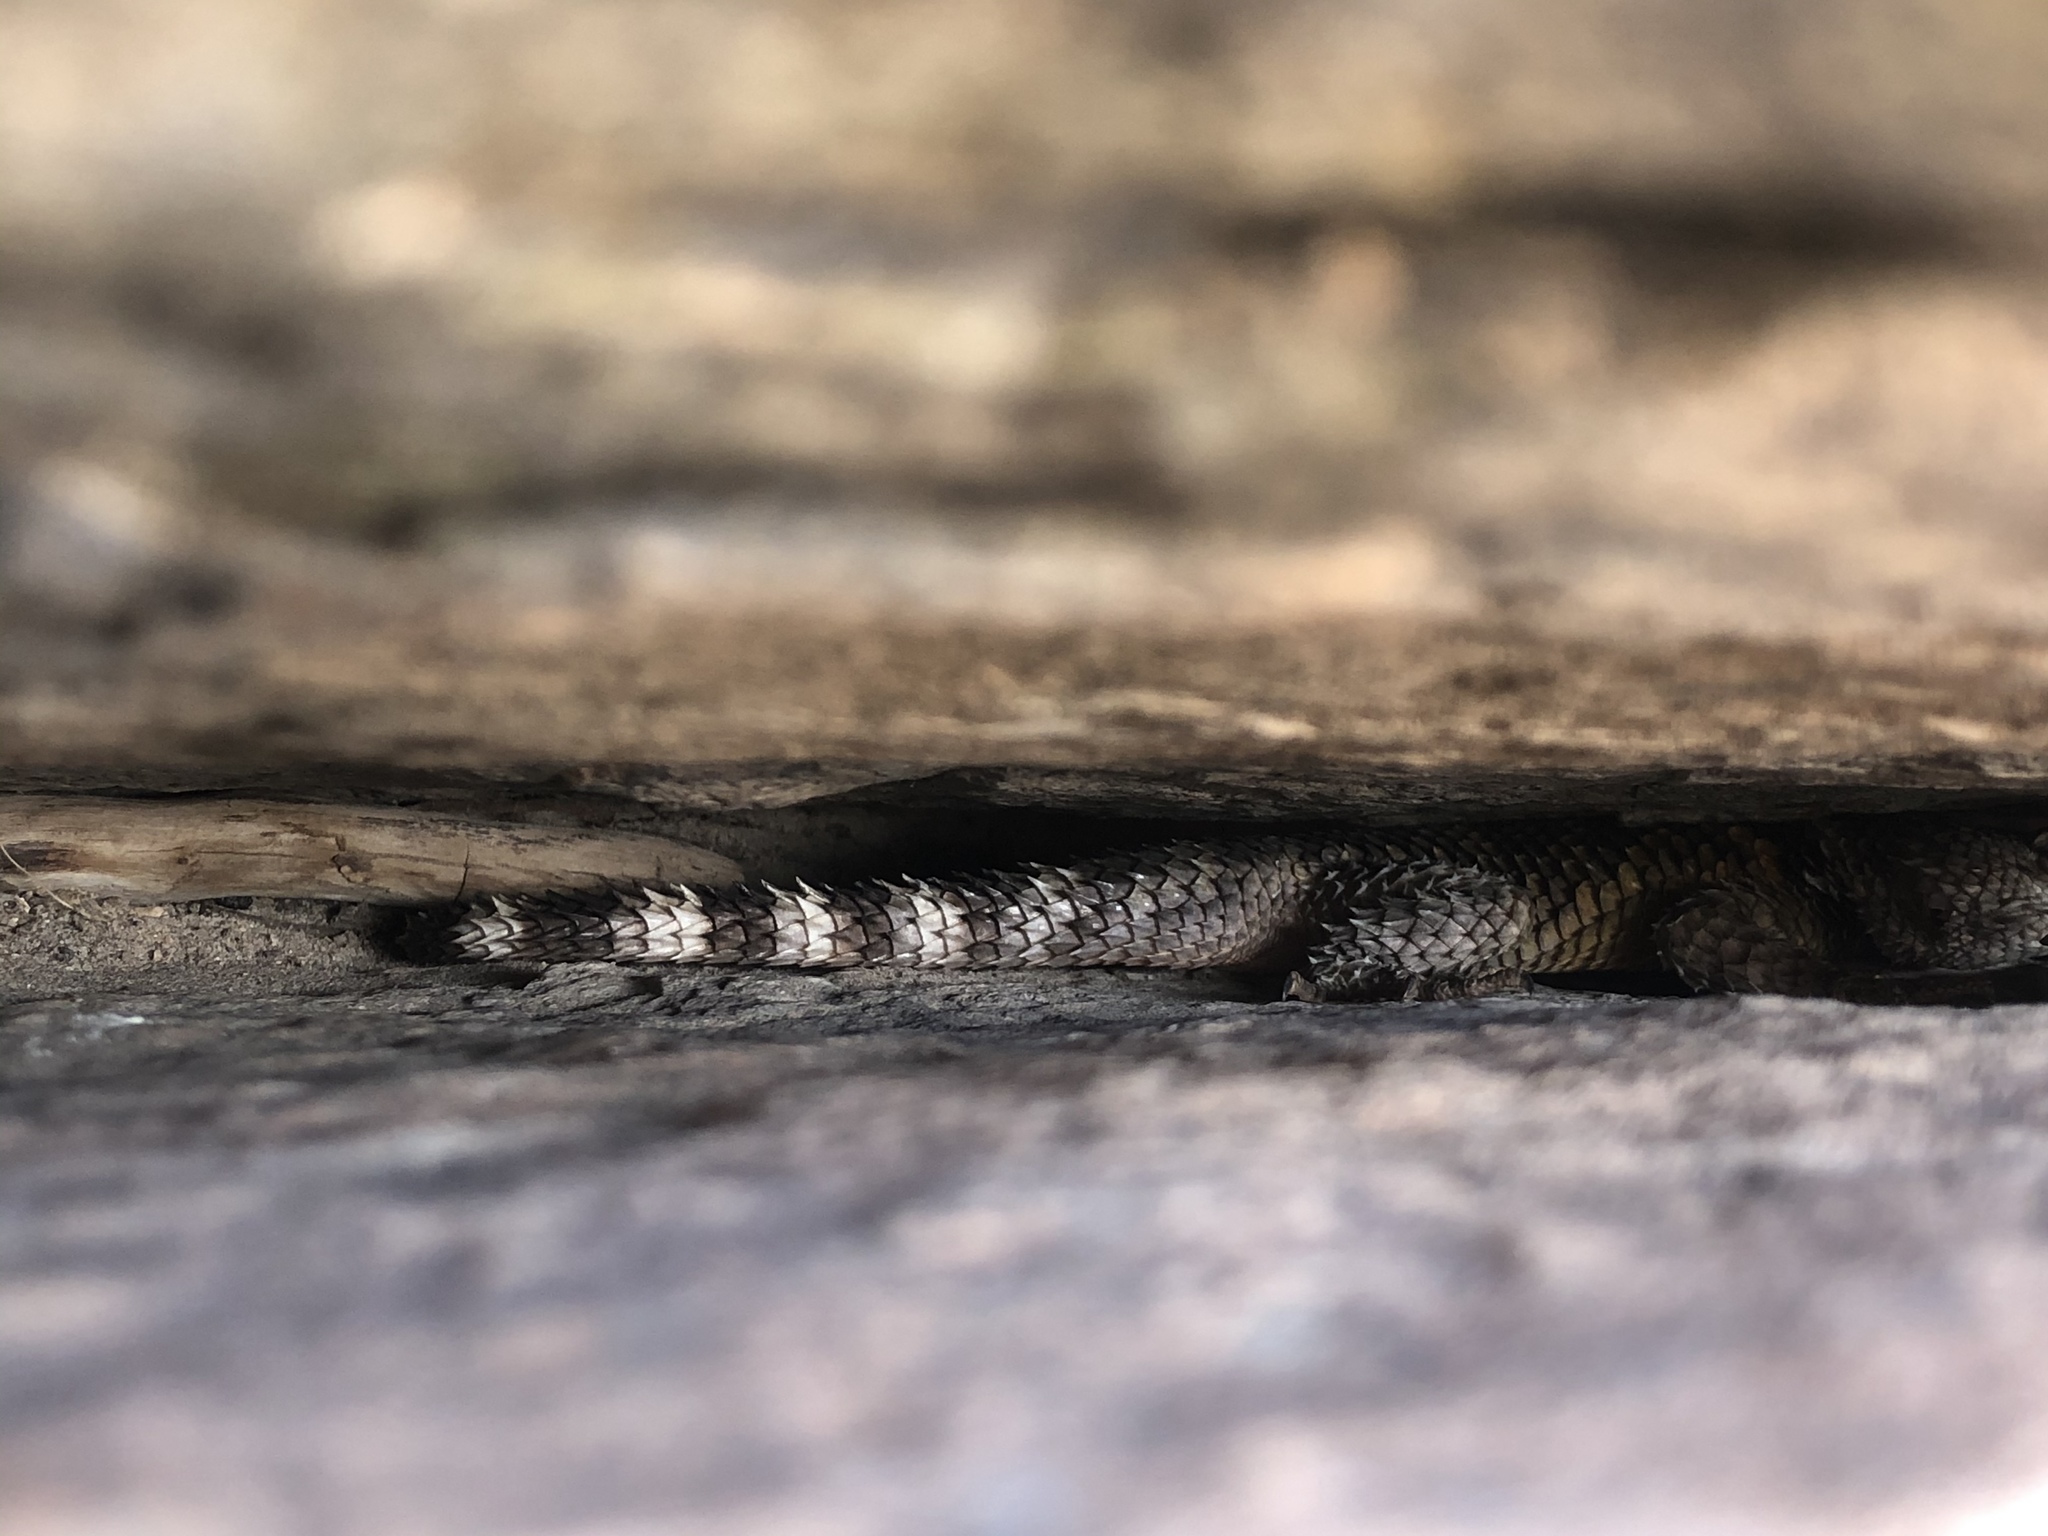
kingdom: Animalia
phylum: Chordata
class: Squamata
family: Phrynosomatidae
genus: Sceloporus
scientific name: Sceloporus poinsettii
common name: Crevice spiny lizard
